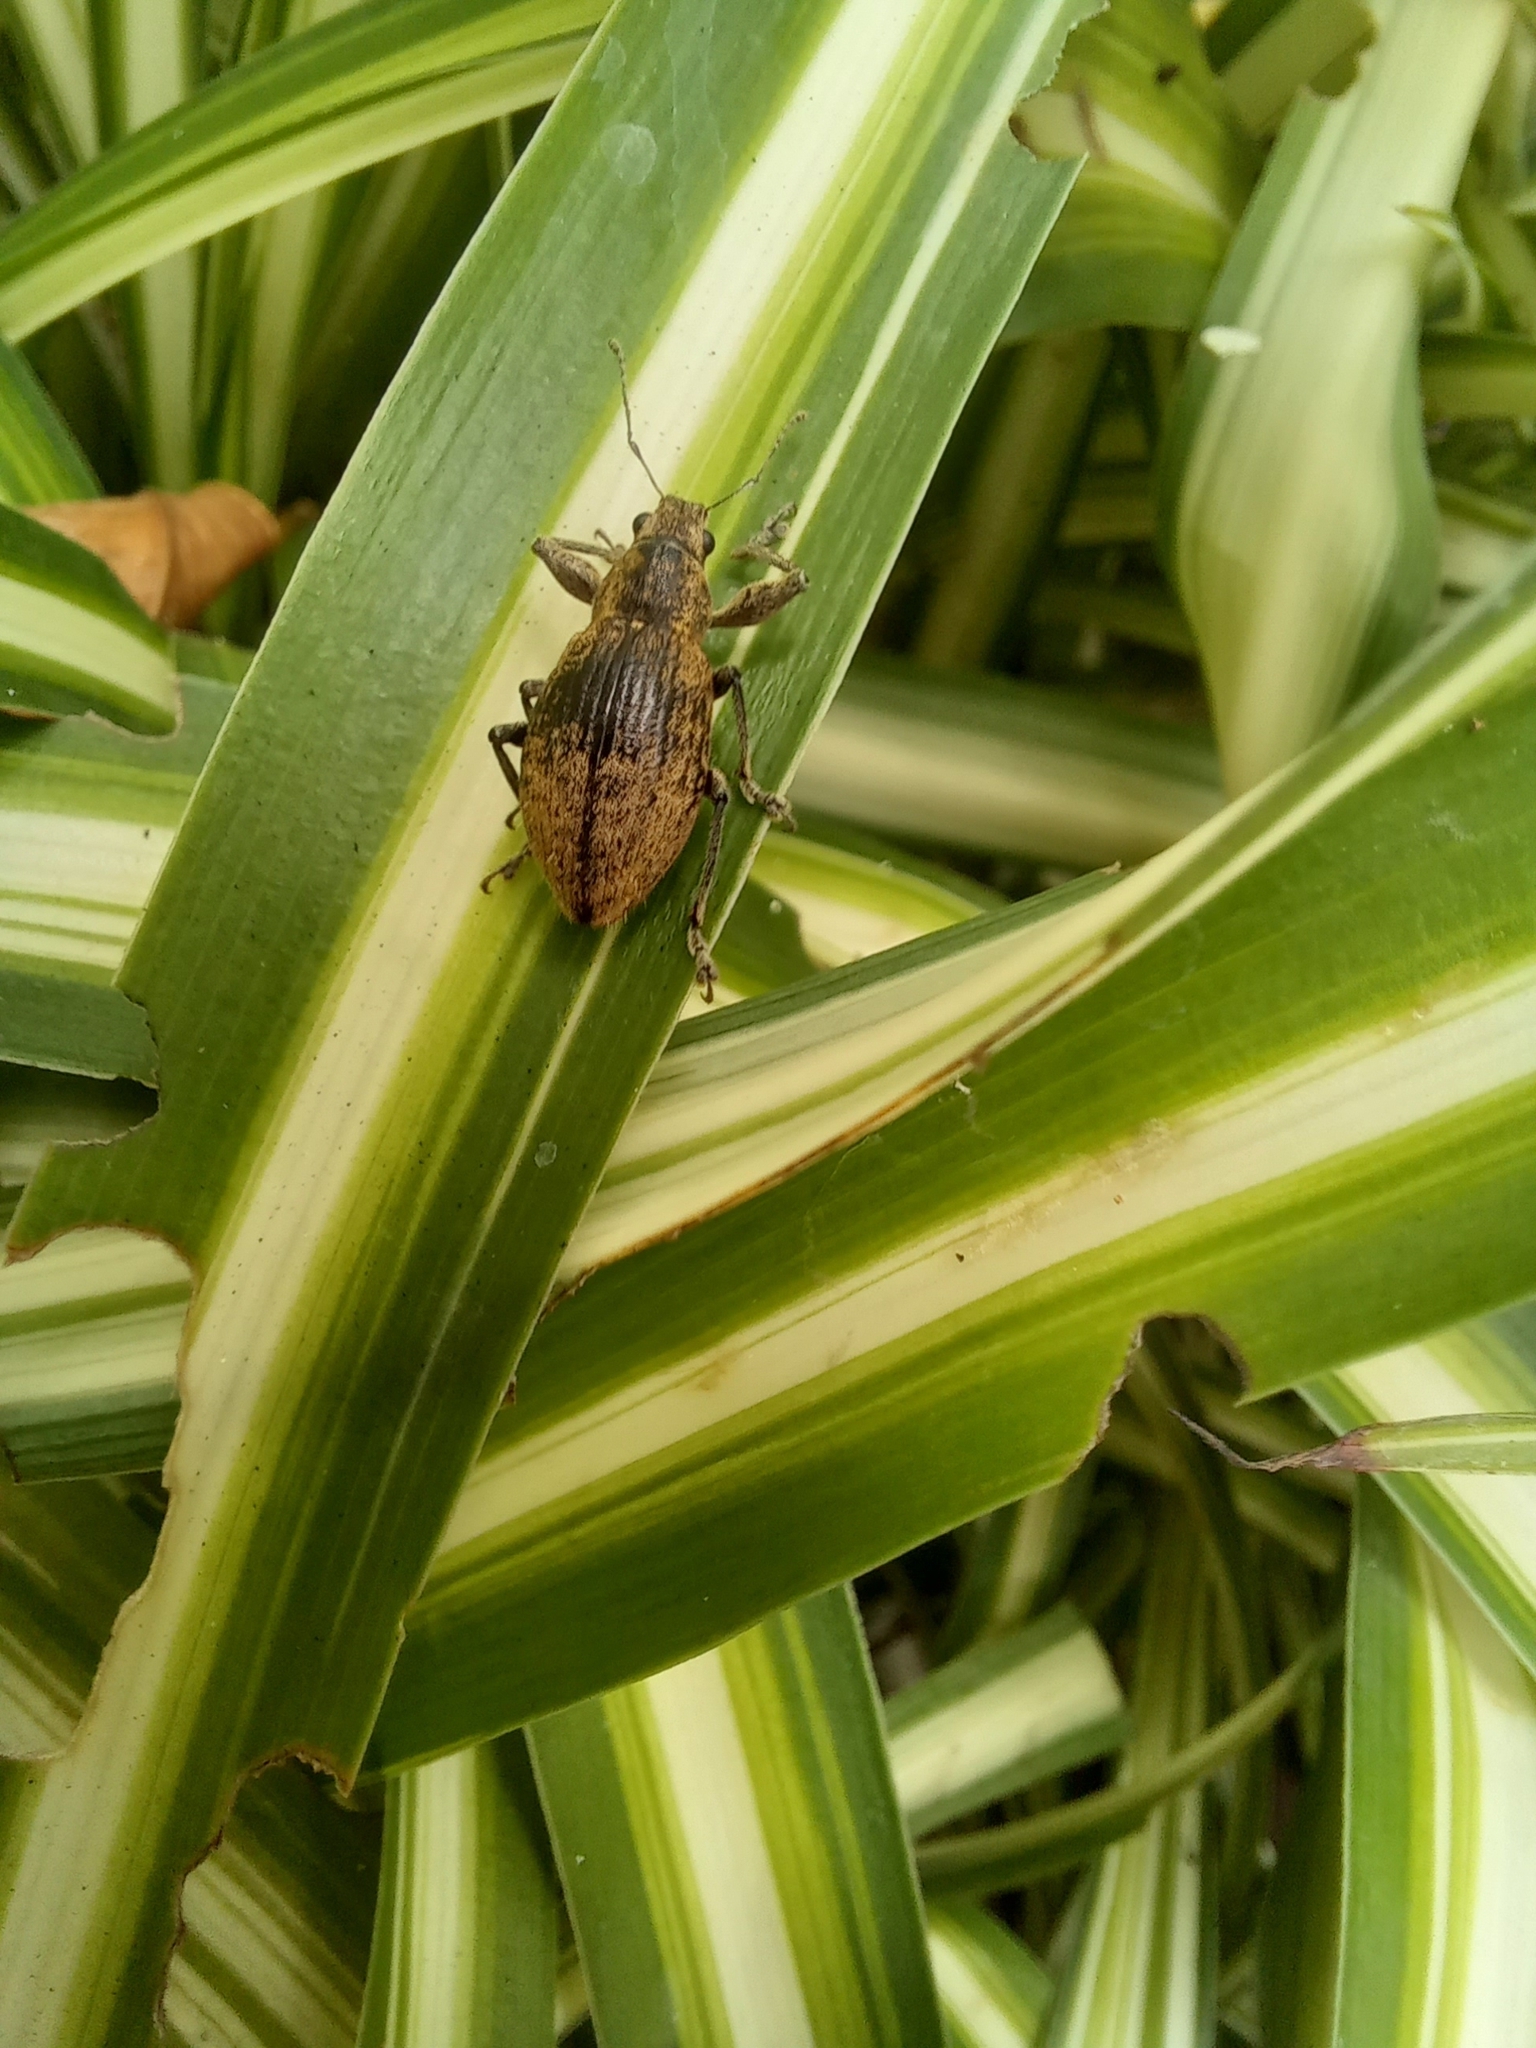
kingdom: Animalia
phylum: Arthropoda
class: Insecta
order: Coleoptera
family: Curculionidae
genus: Naupactus
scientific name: Naupactus versatilis
